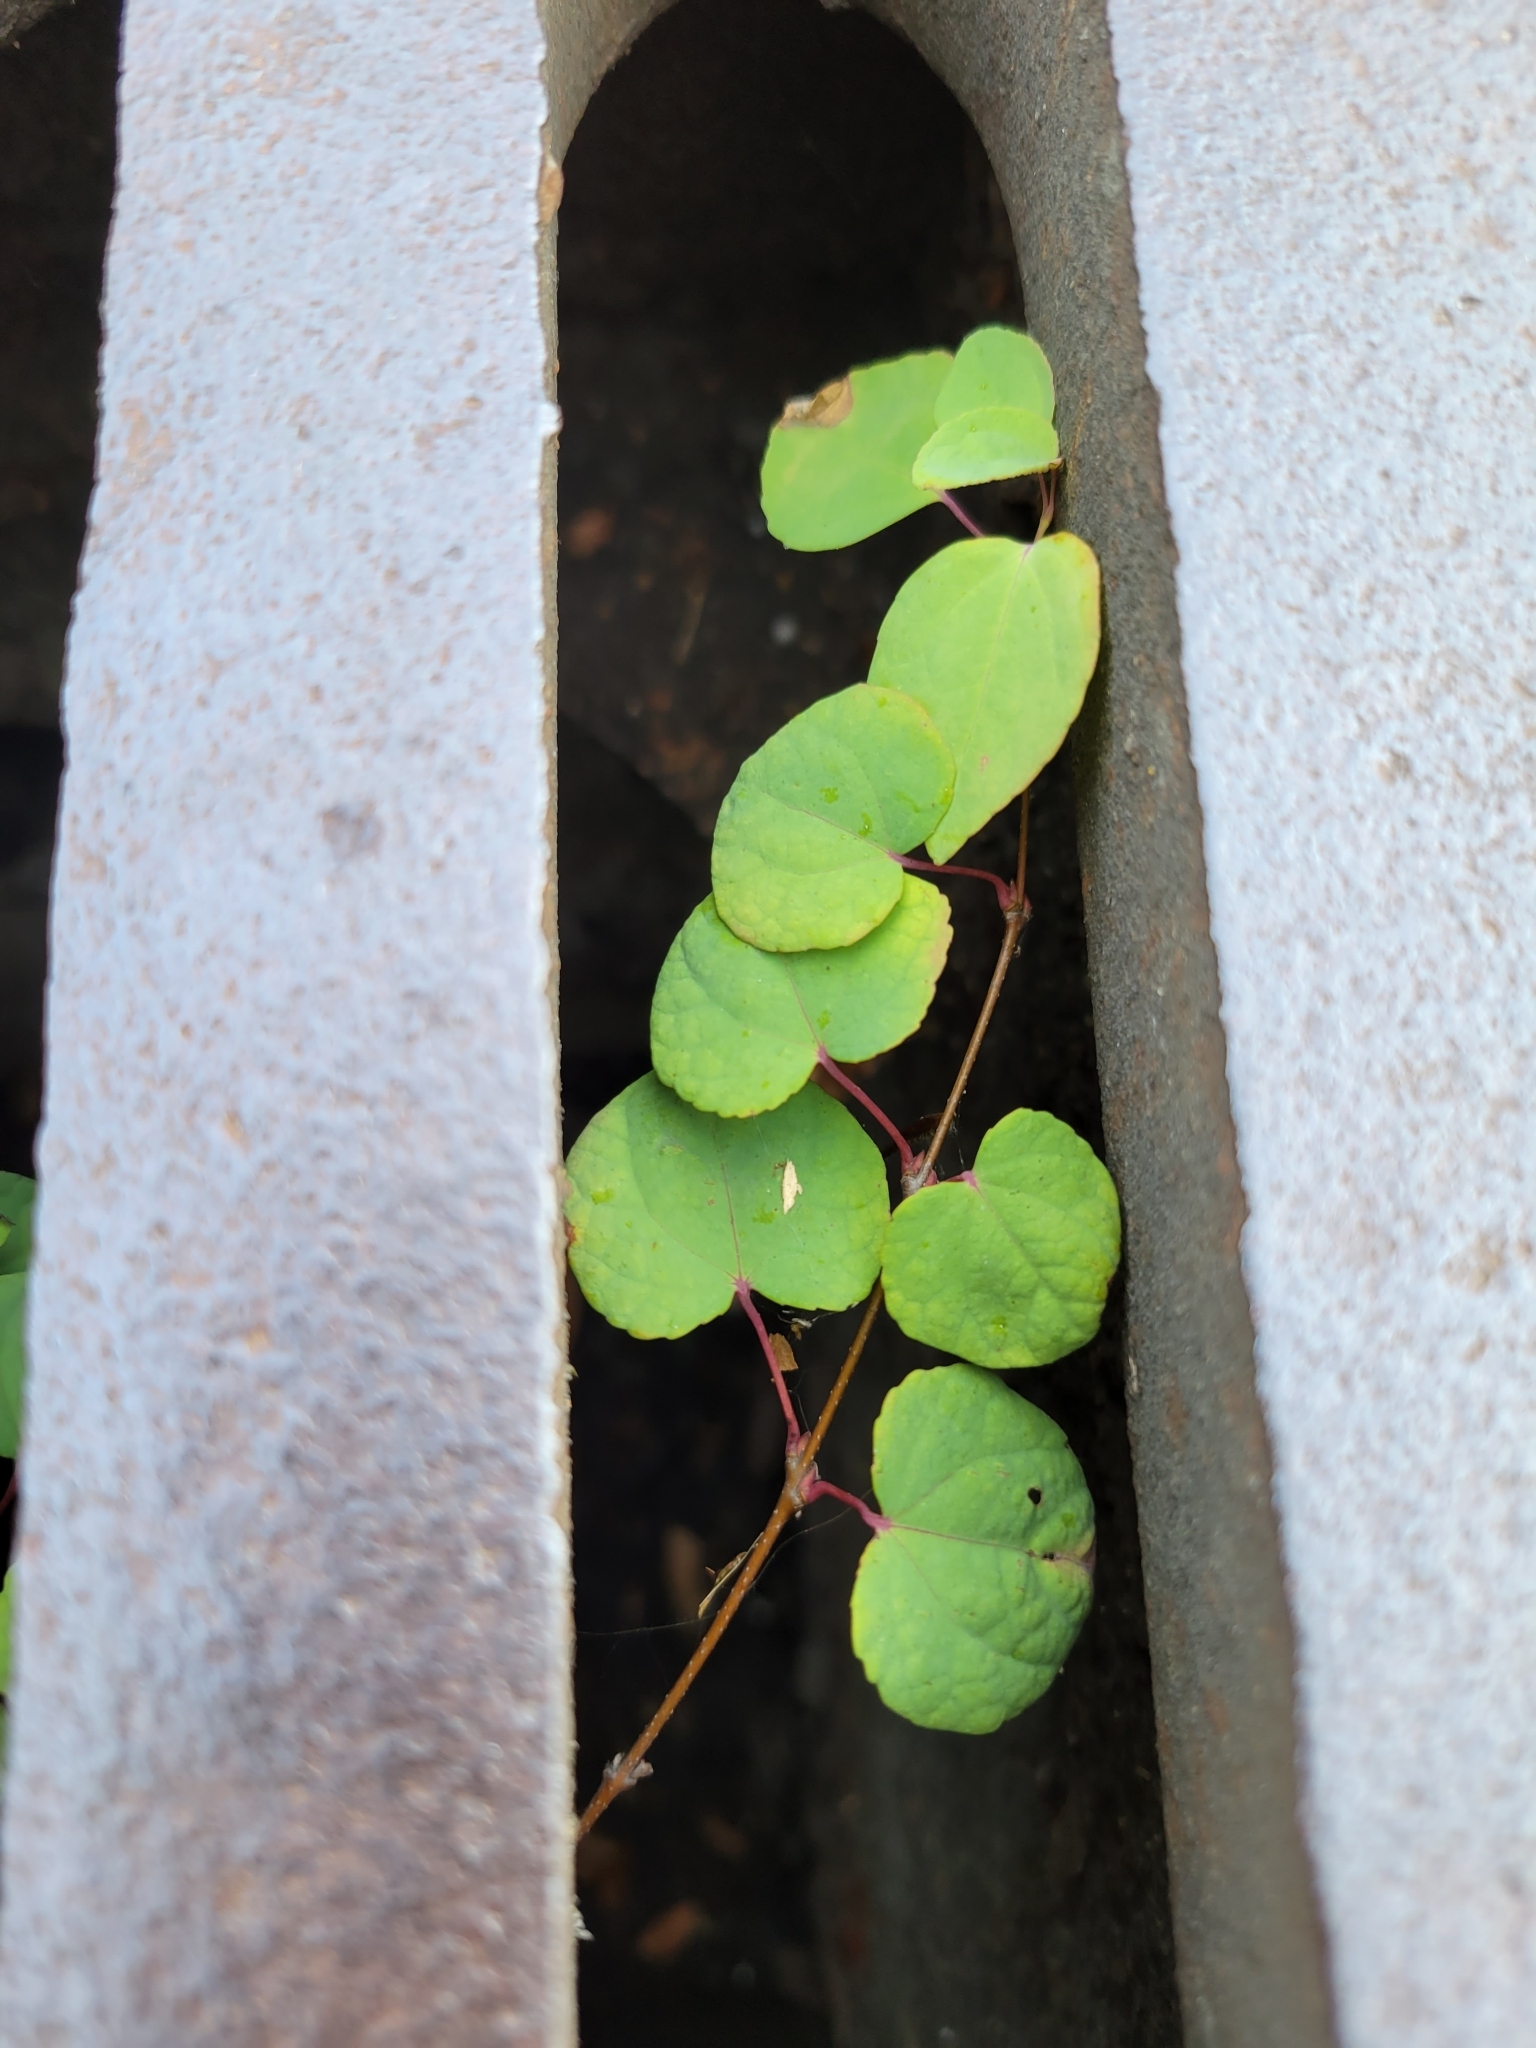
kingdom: Plantae
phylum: Tracheophyta
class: Magnoliopsida
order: Saxifragales
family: Cercidiphyllaceae
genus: Cercidiphyllum
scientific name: Cercidiphyllum japonicum
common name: Katsura tree
